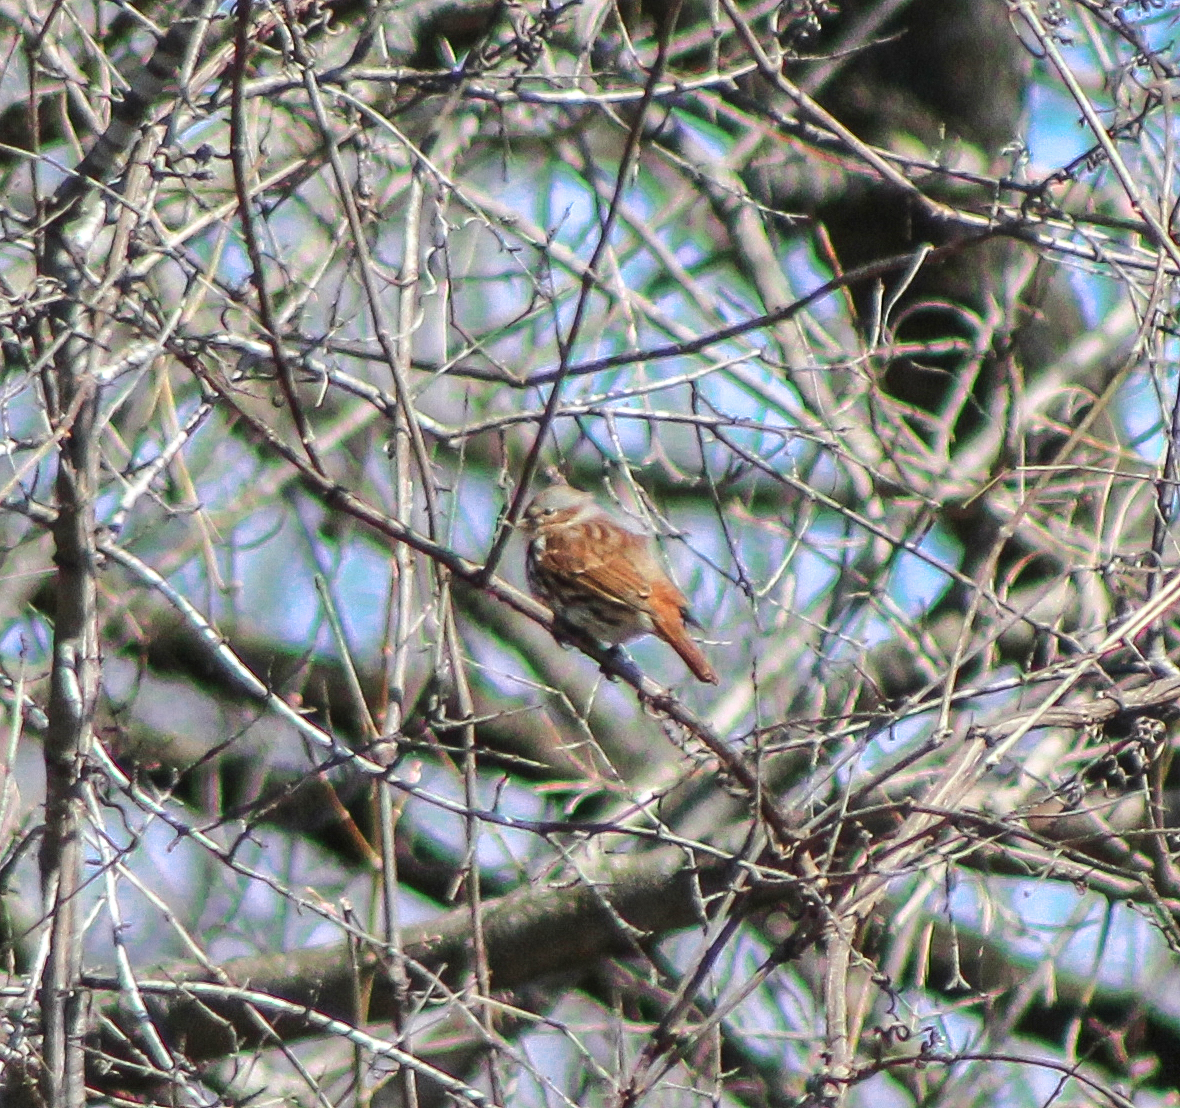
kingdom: Animalia
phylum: Chordata
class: Aves
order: Passeriformes
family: Passerellidae
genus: Passerella
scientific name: Passerella iliaca
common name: Fox sparrow
